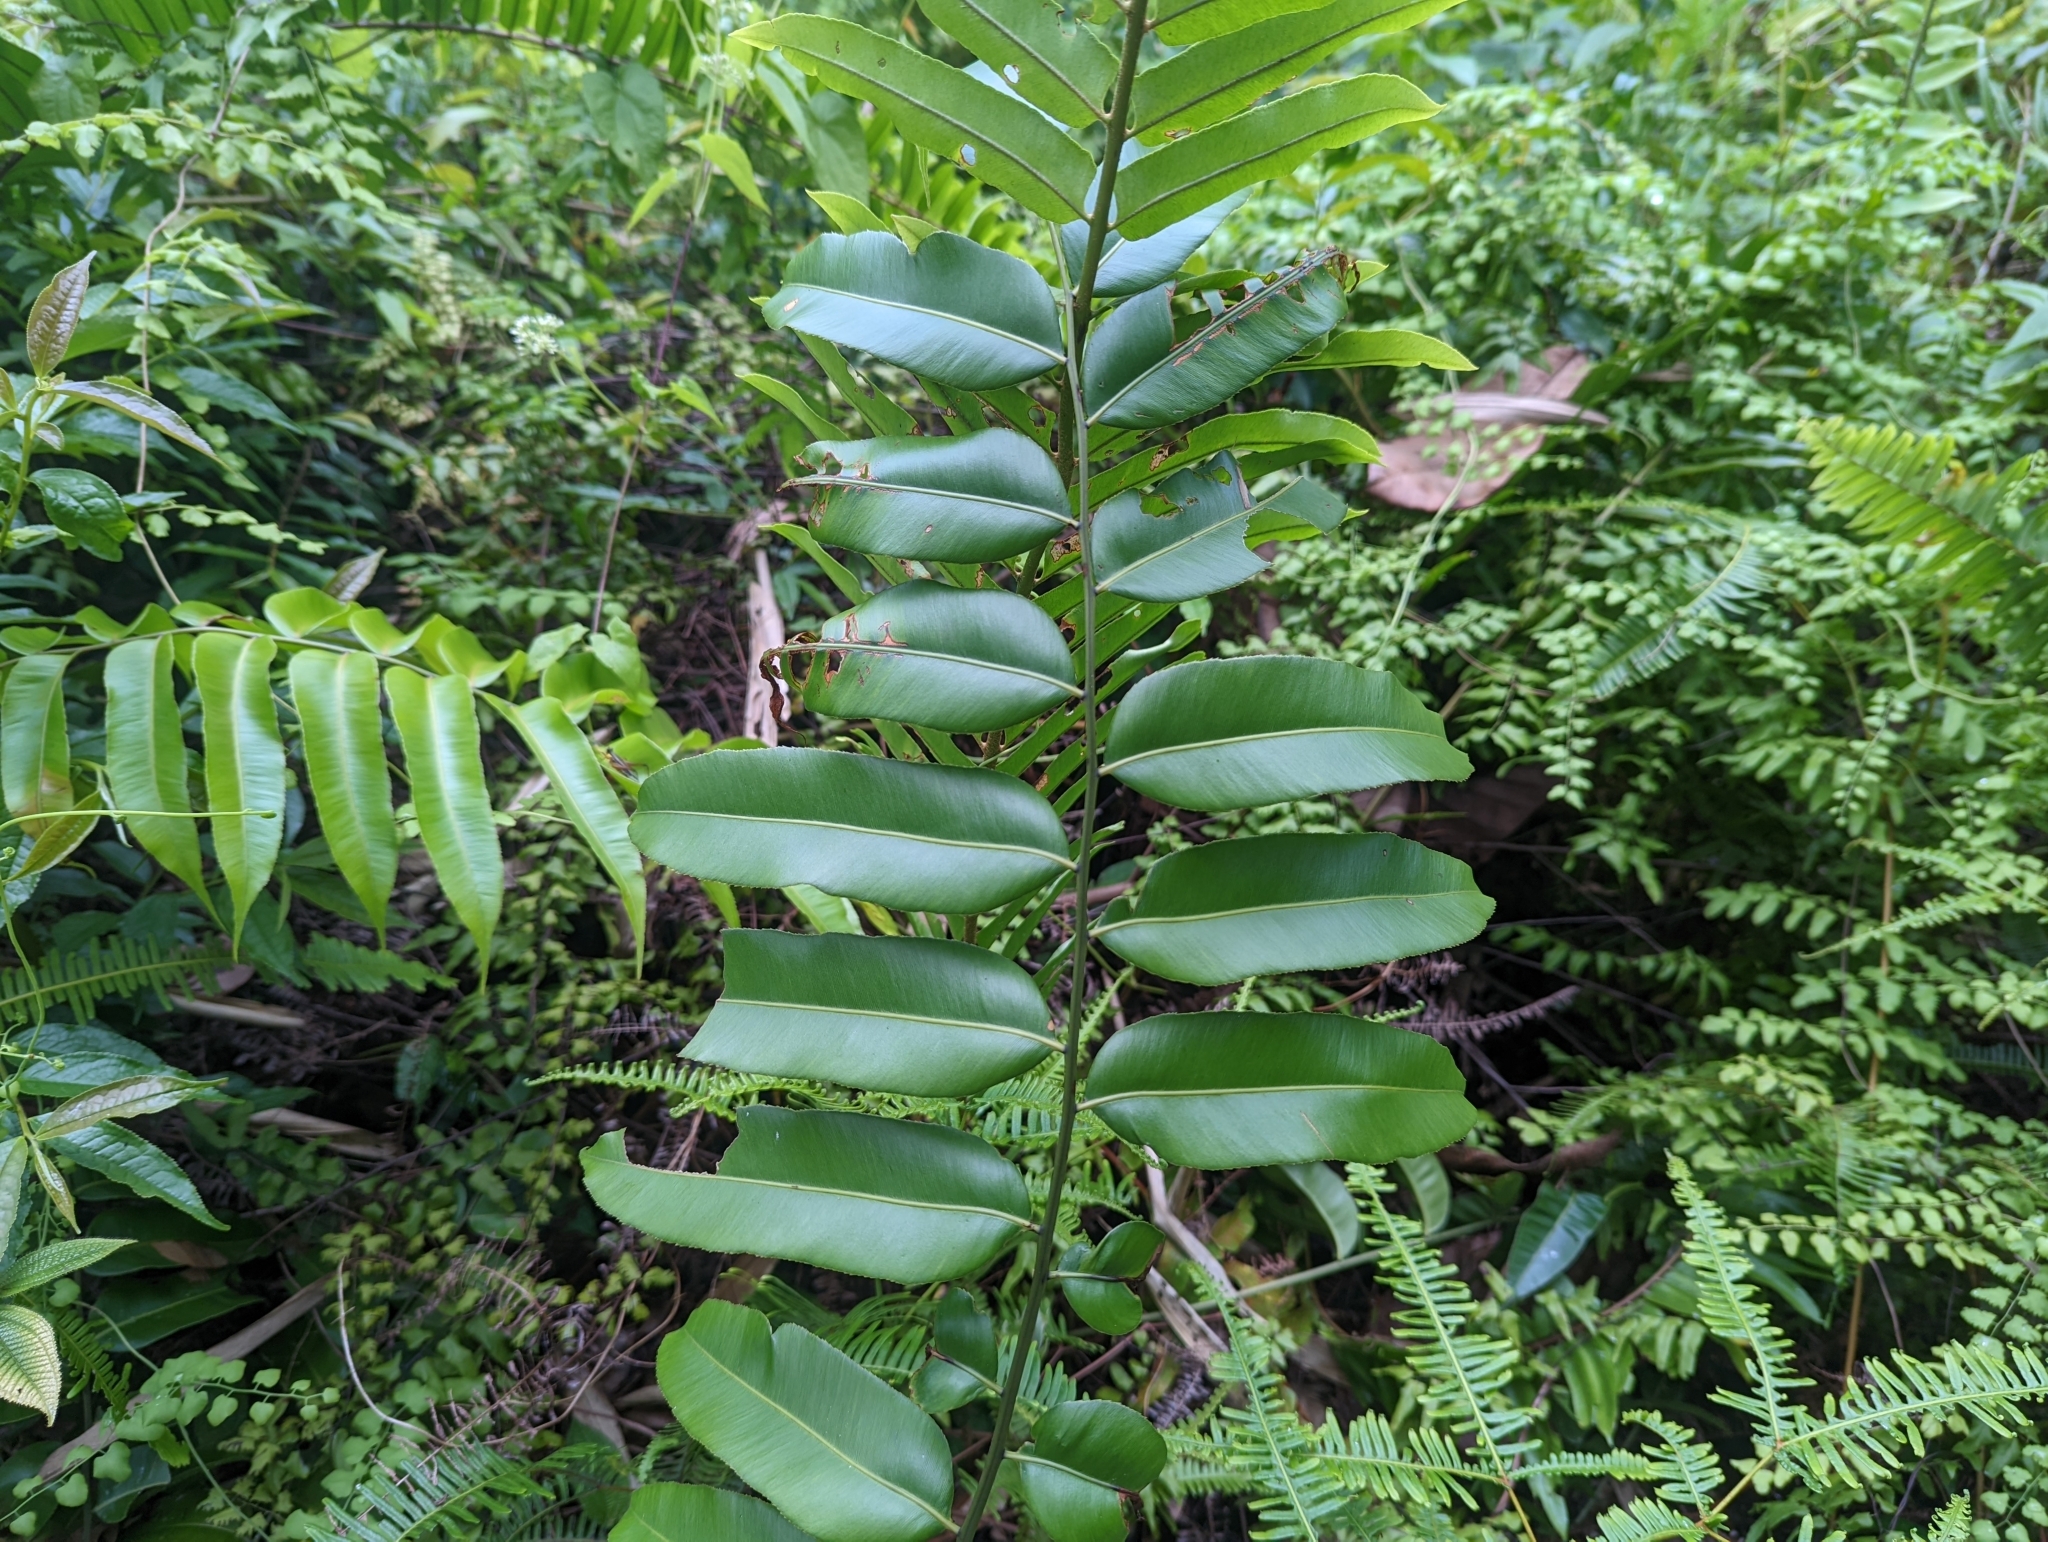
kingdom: Plantae
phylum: Tracheophyta
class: Polypodiopsida
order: Polypodiales
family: Blechnaceae
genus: Stenochlaena
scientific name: Stenochlaena palustris
